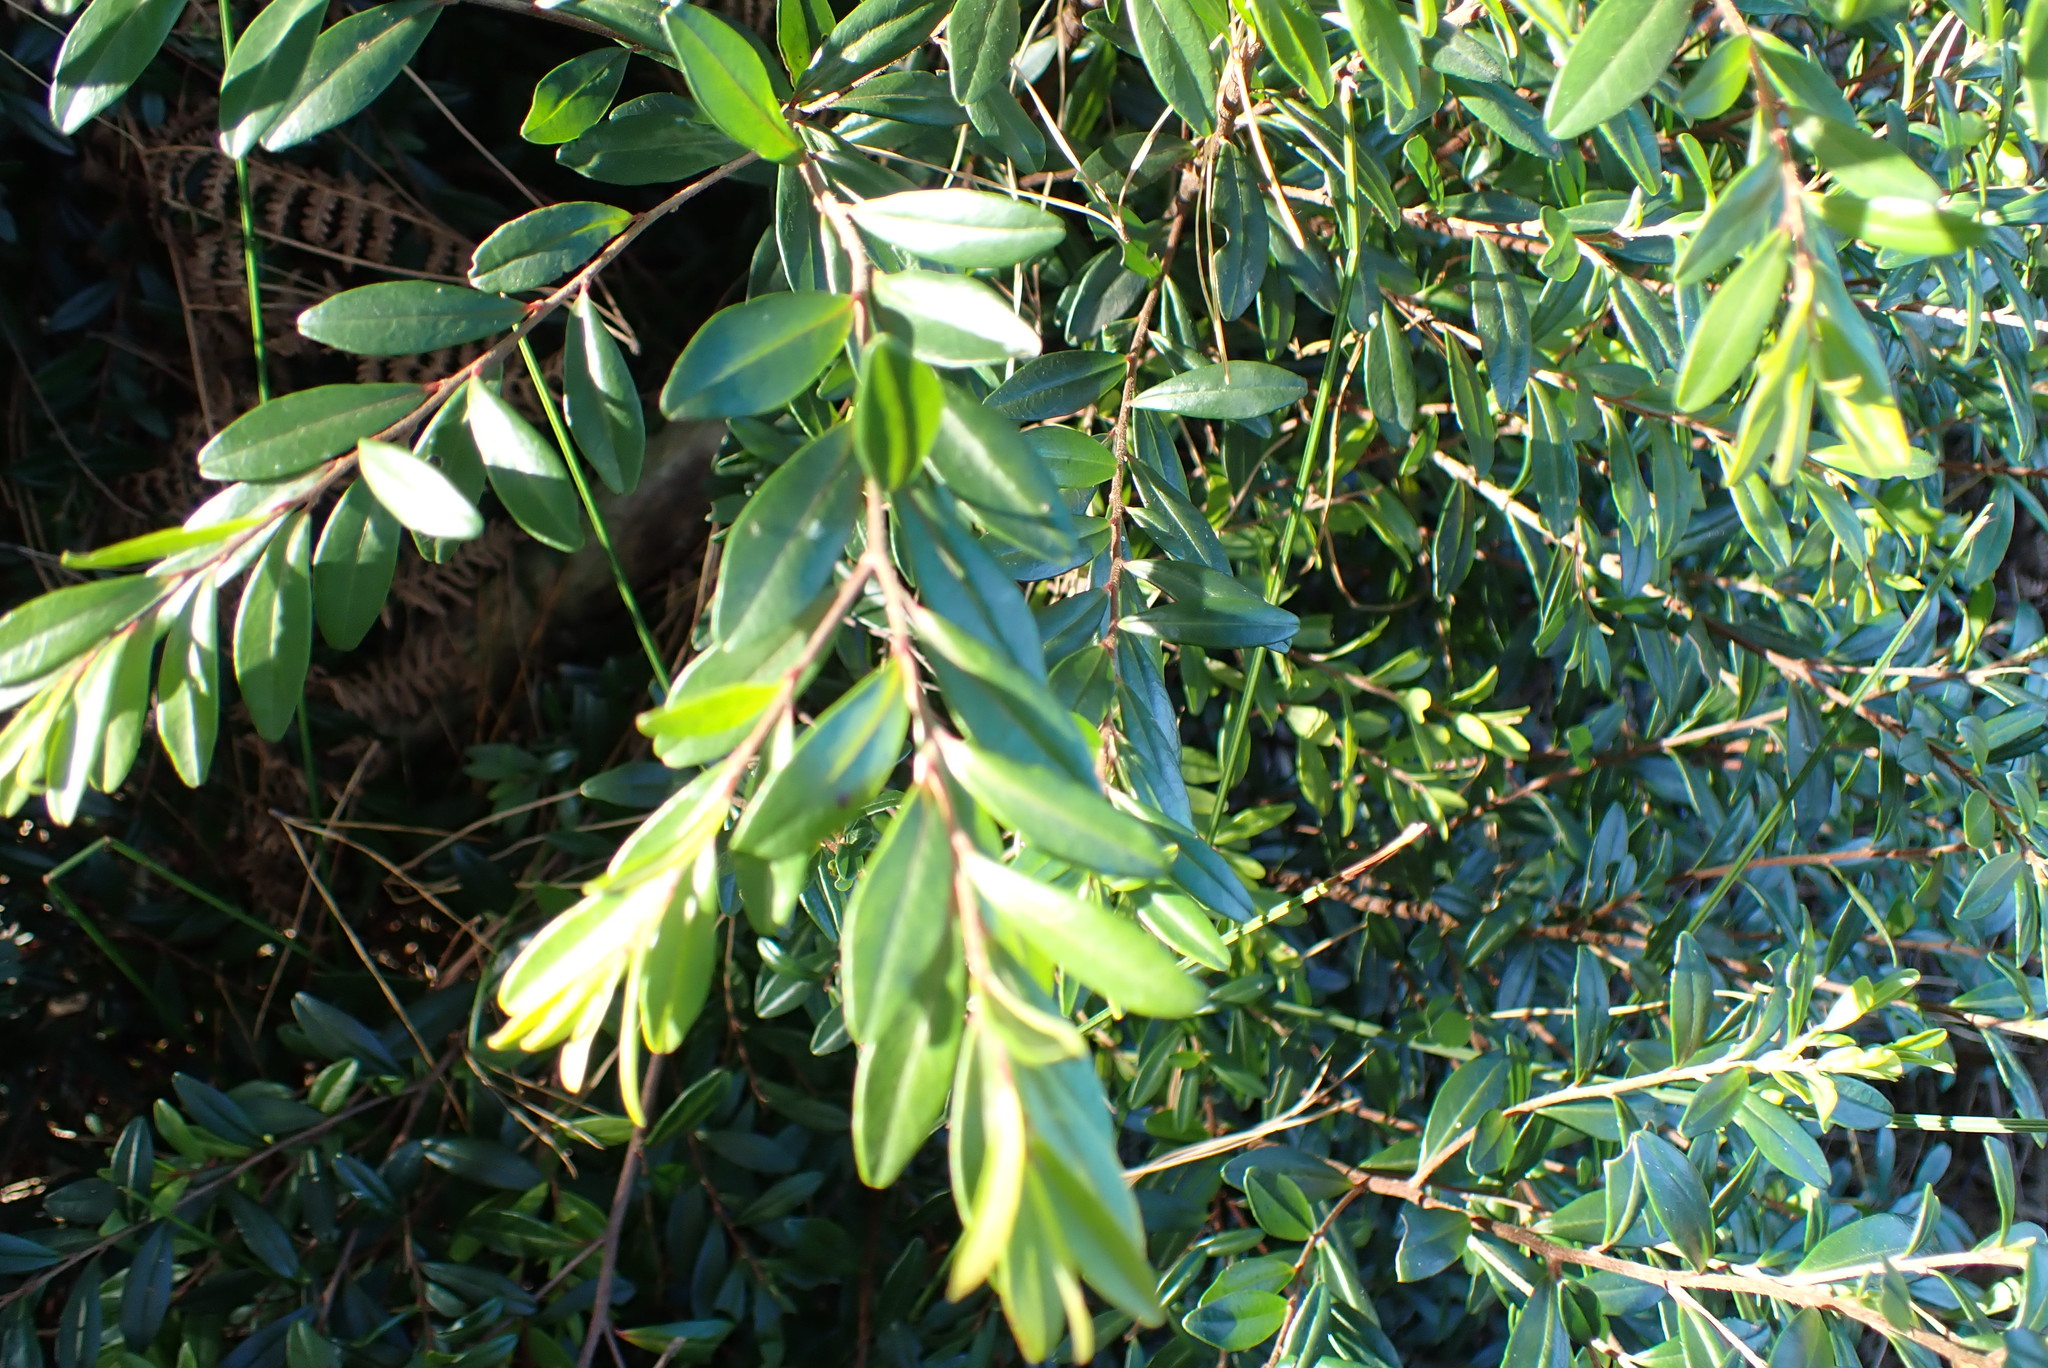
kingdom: Plantae
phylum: Tracheophyta
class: Magnoliopsida
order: Ericales
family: Ebenaceae
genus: Diospyros
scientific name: Diospyros glabra
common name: Fynbos star apple
